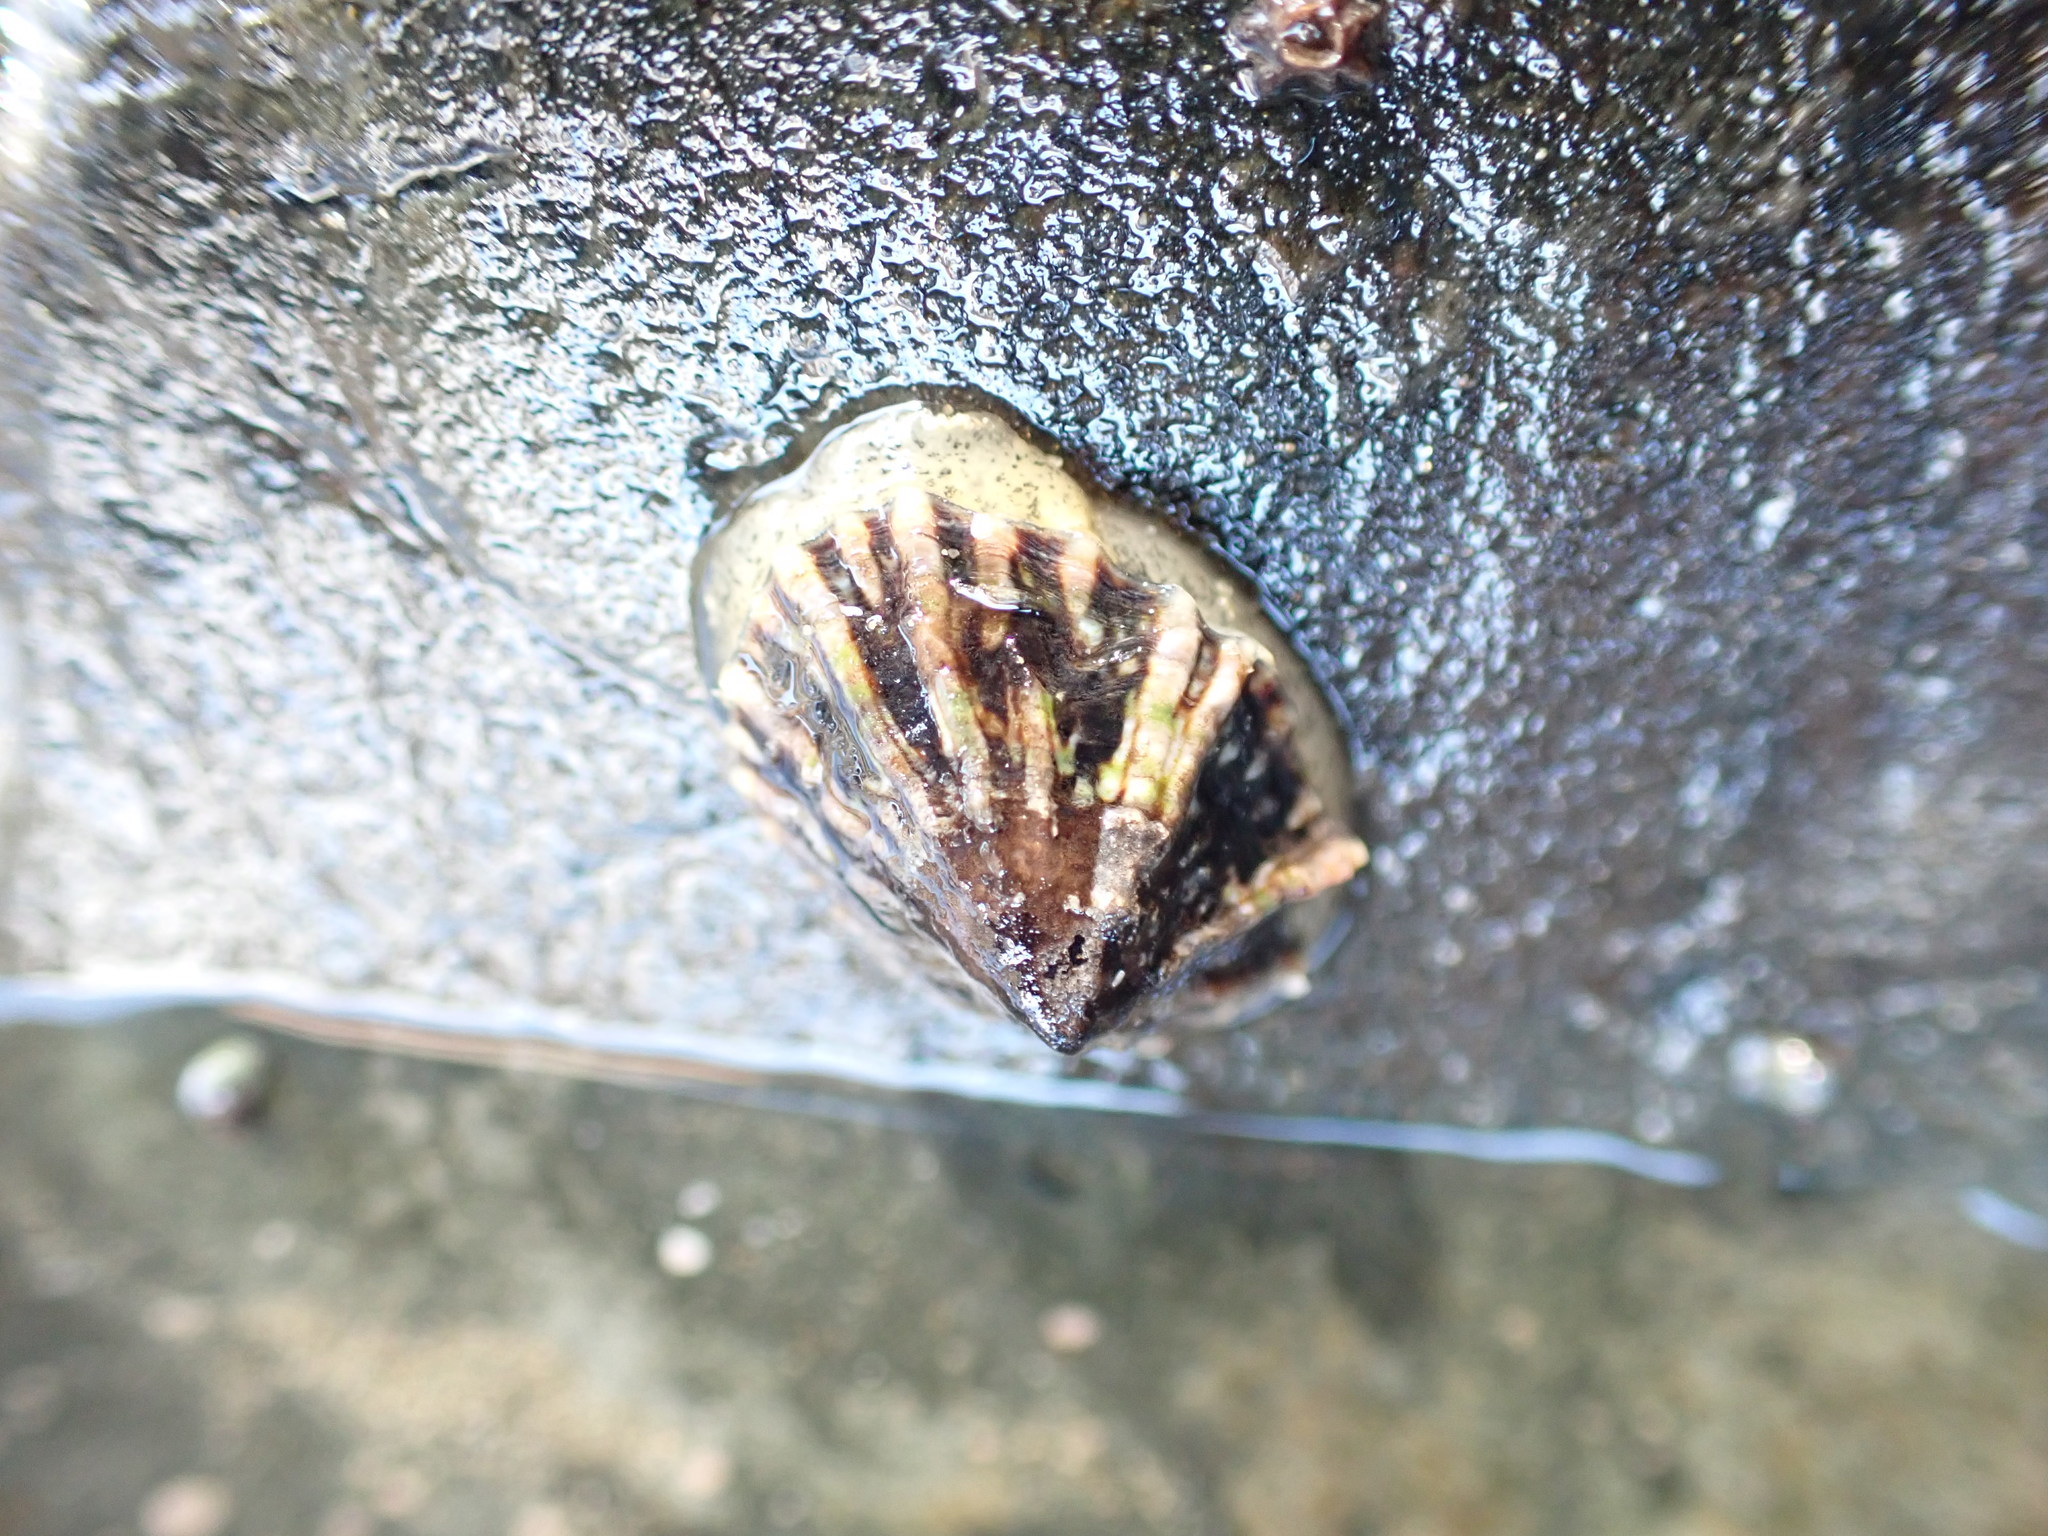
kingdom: Animalia
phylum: Mollusca
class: Gastropoda
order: Siphonariida
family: Siphonariidae
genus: Siphonaria
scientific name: Siphonaria australis
